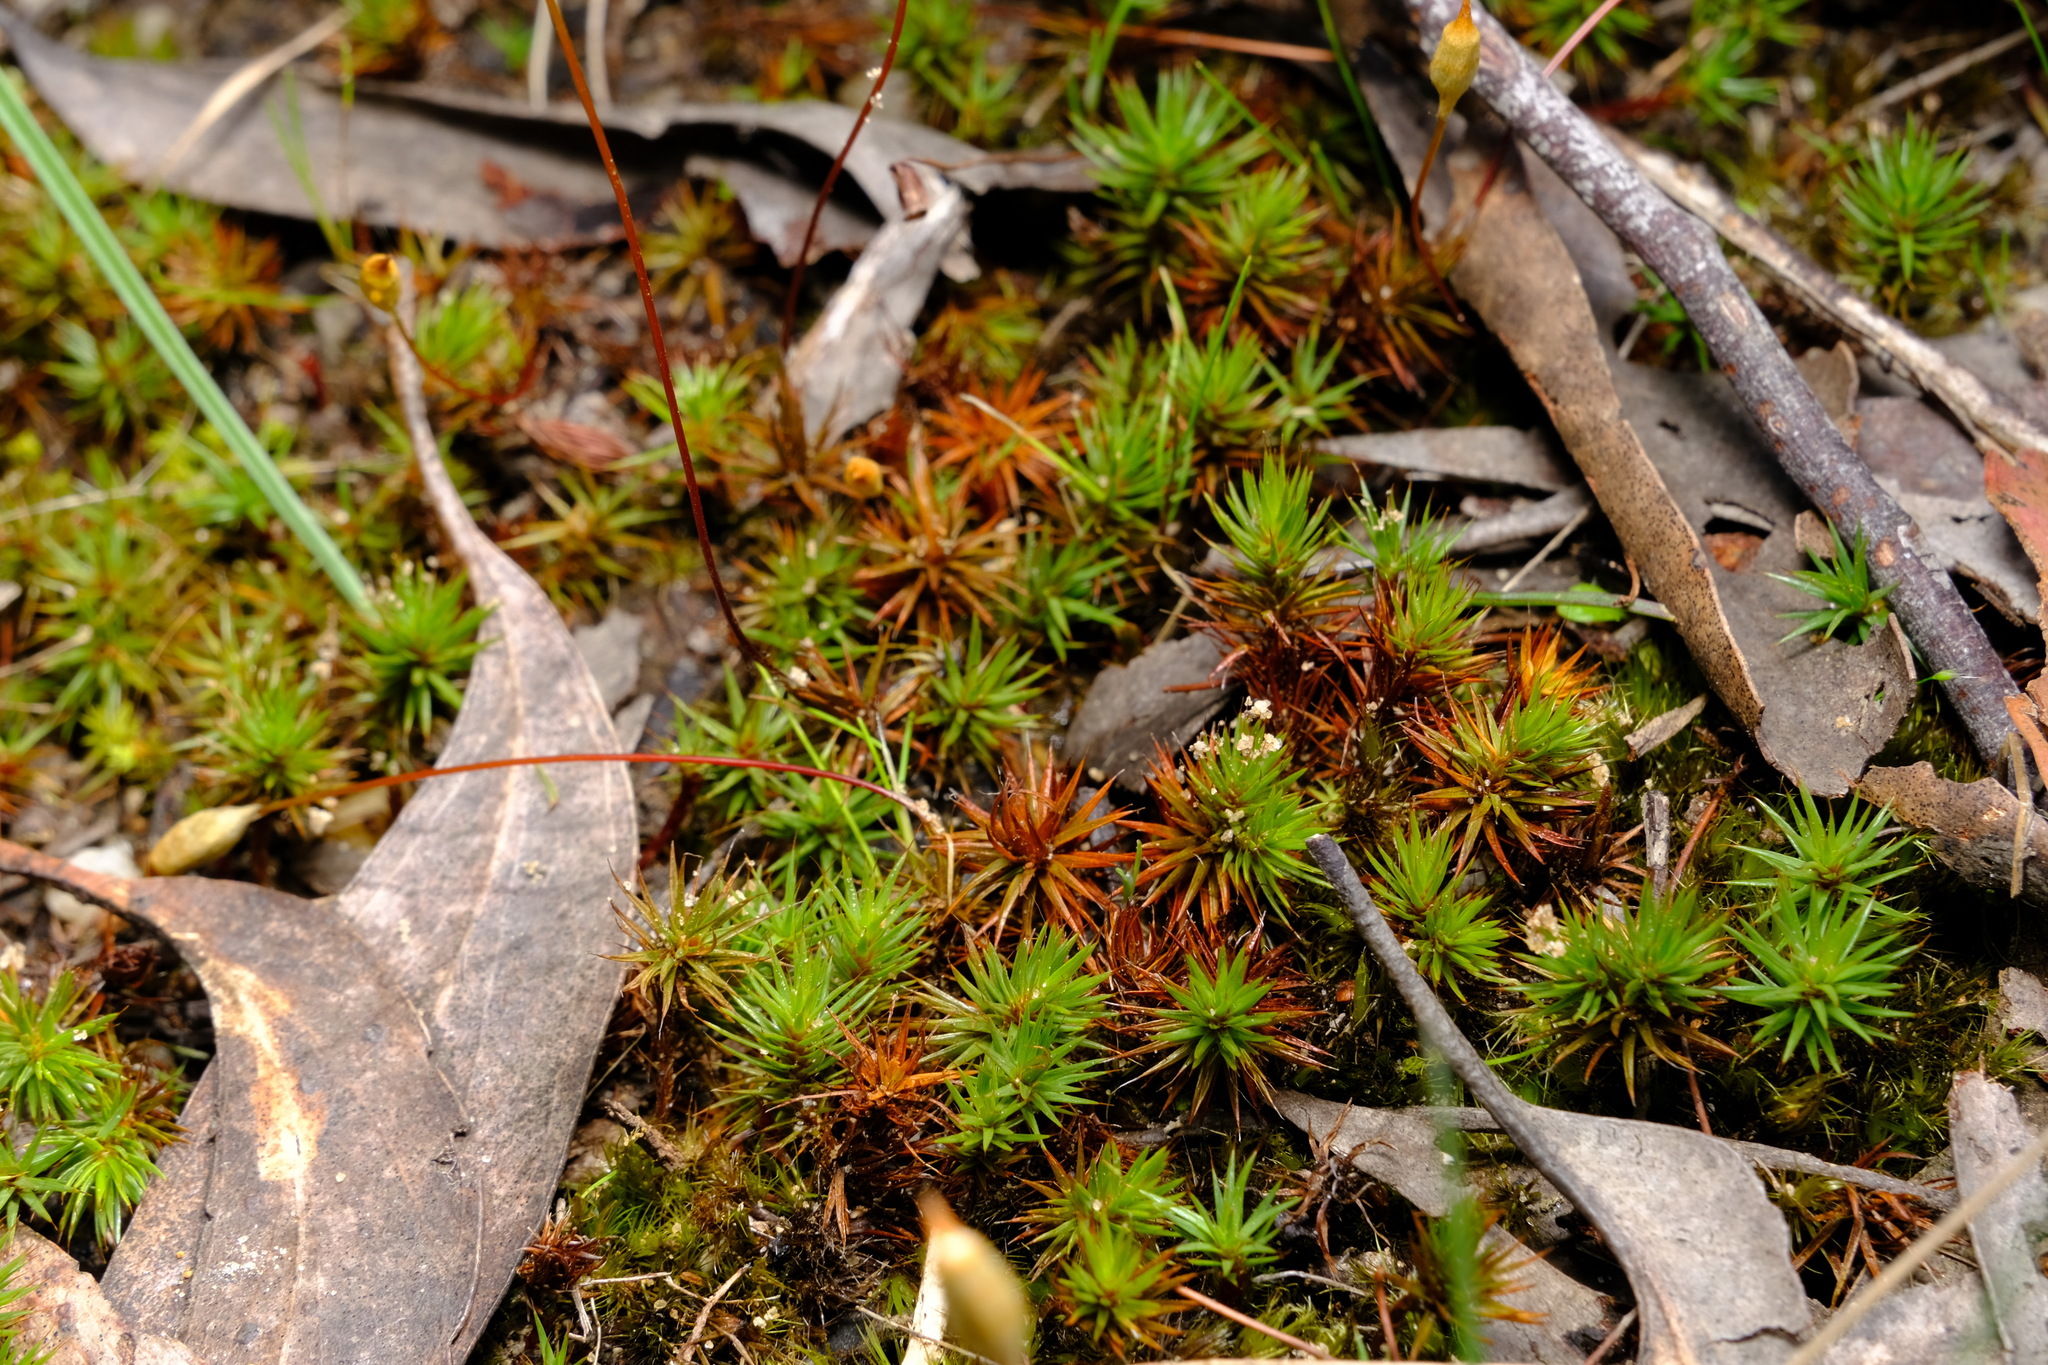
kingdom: Plantae
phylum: Bryophyta
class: Polytrichopsida
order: Polytrichales
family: Polytrichaceae
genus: Polytrichum
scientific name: Polytrichum juniperinum
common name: Juniper haircap moss
